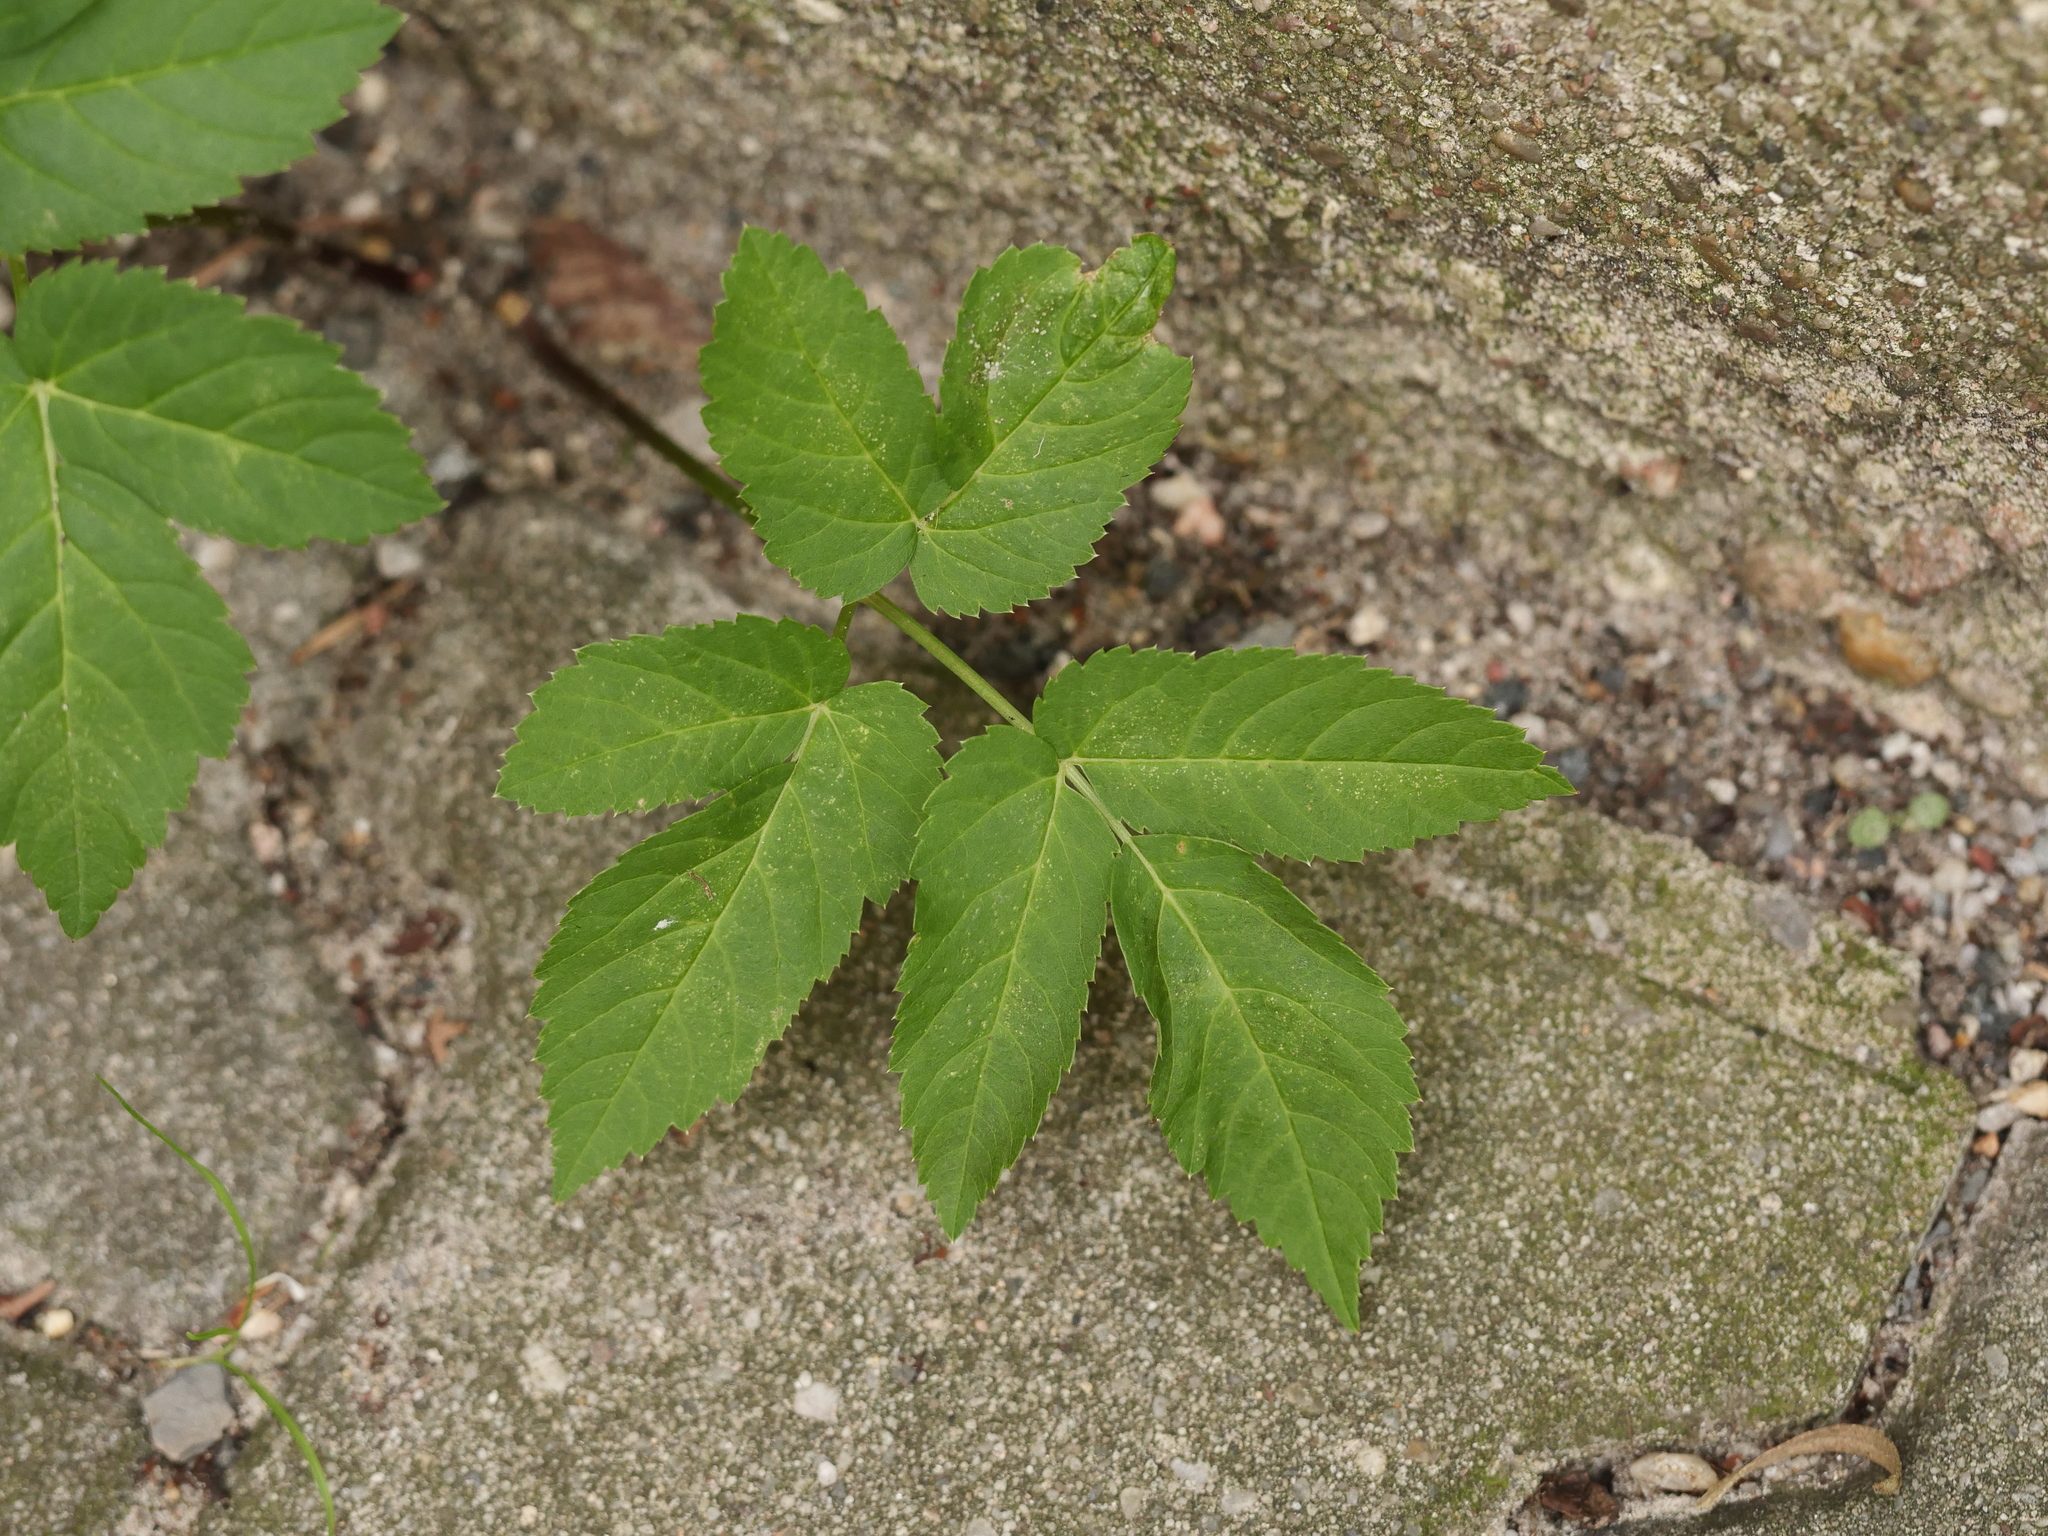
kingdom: Plantae
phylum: Tracheophyta
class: Magnoliopsida
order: Apiales
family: Apiaceae
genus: Aegopodium
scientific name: Aegopodium podagraria
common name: Ground-elder
